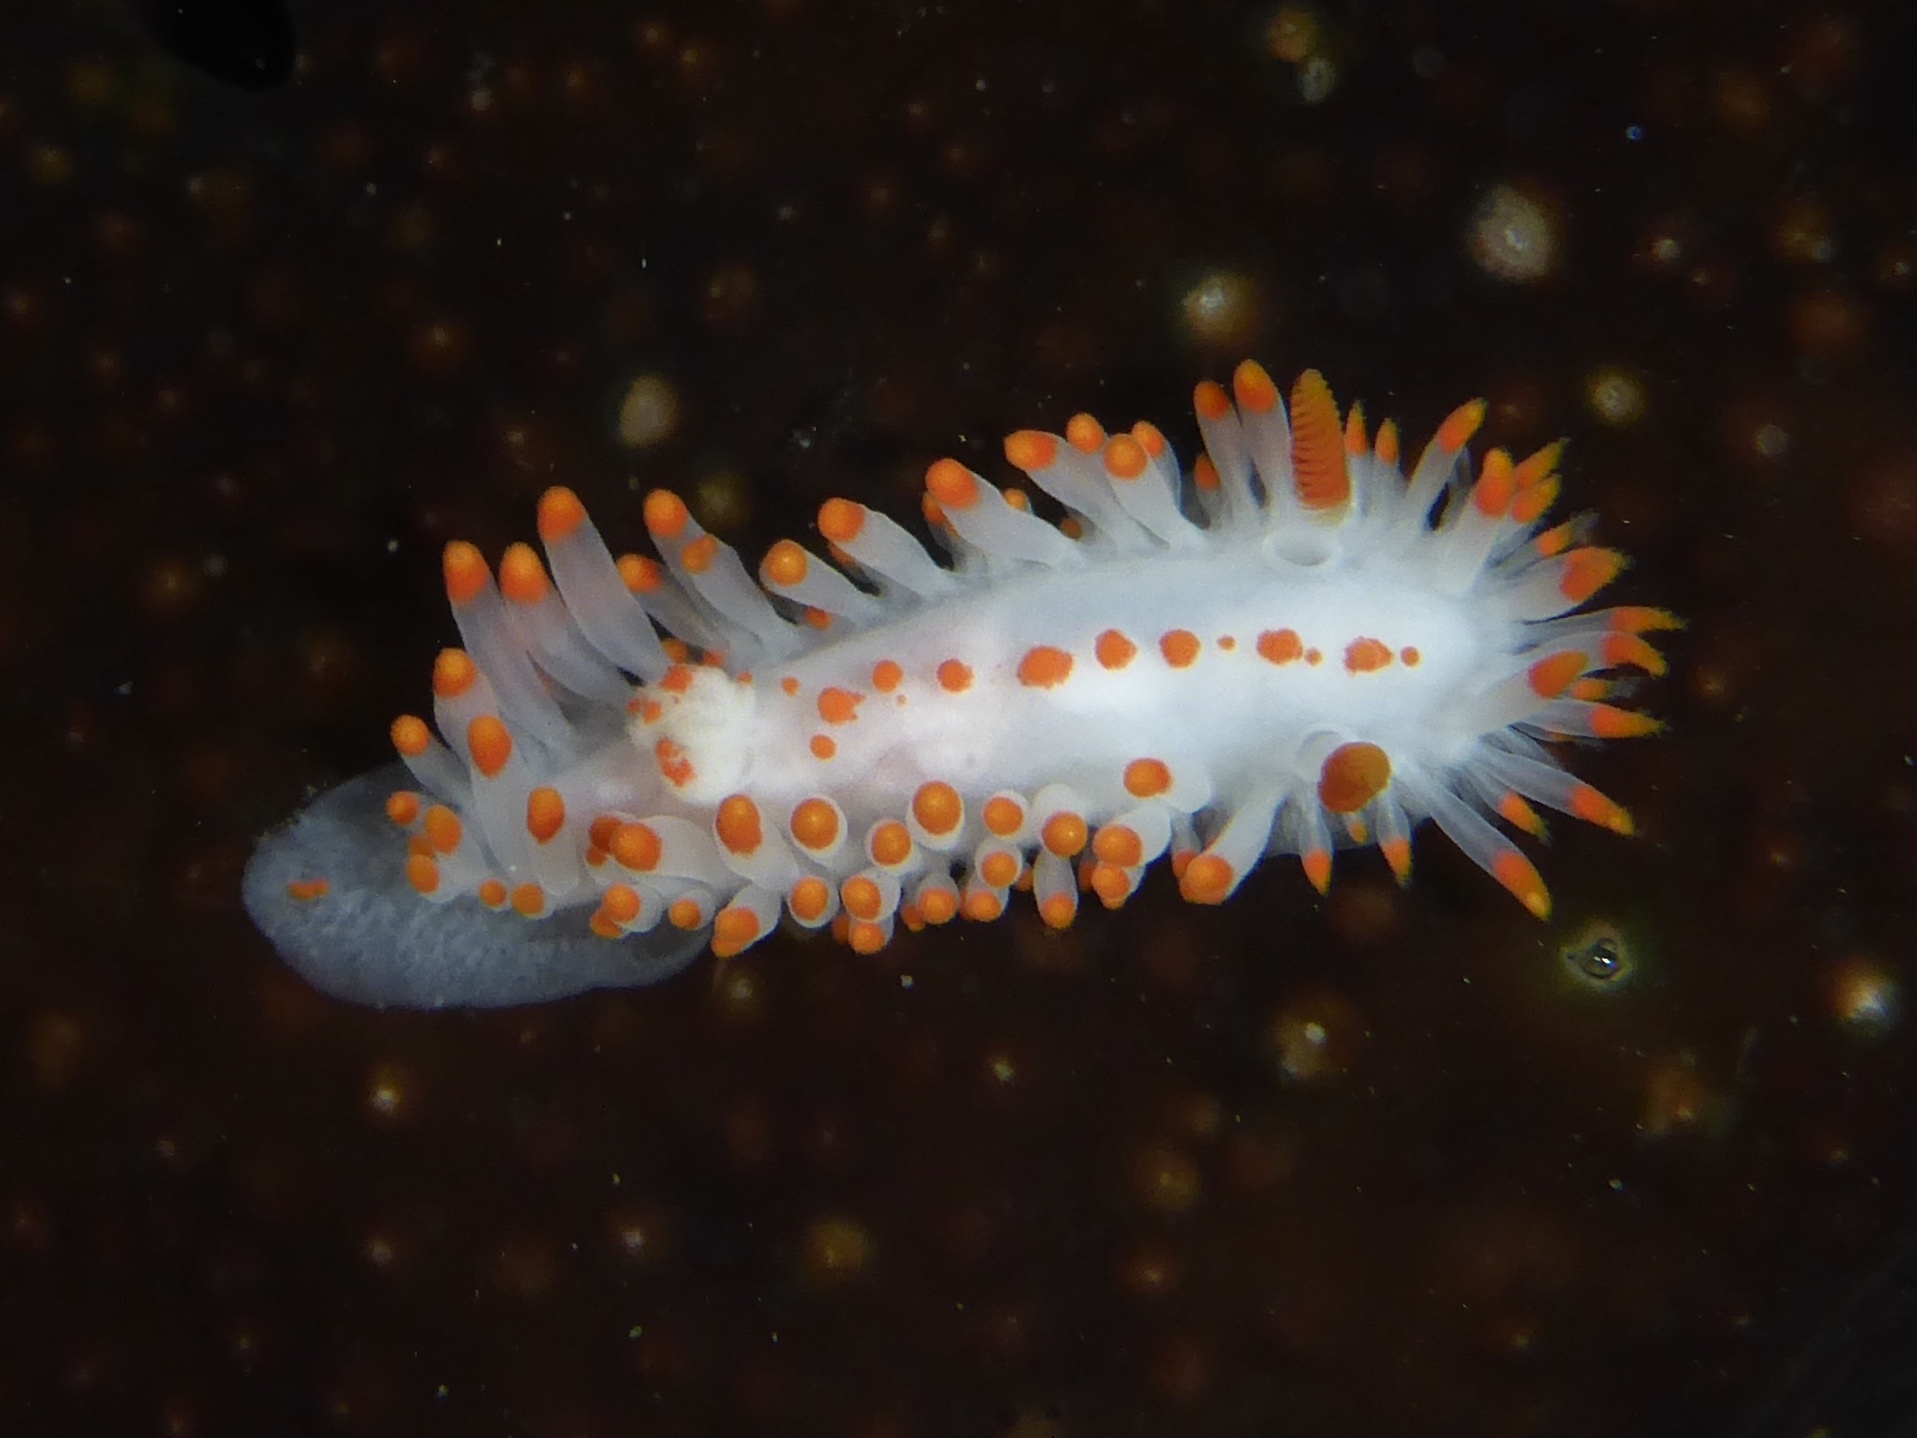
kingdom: Animalia
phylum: Mollusca
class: Gastropoda
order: Nudibranchia
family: Polyceridae
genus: Limacia
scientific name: Limacia mcdonaldi
